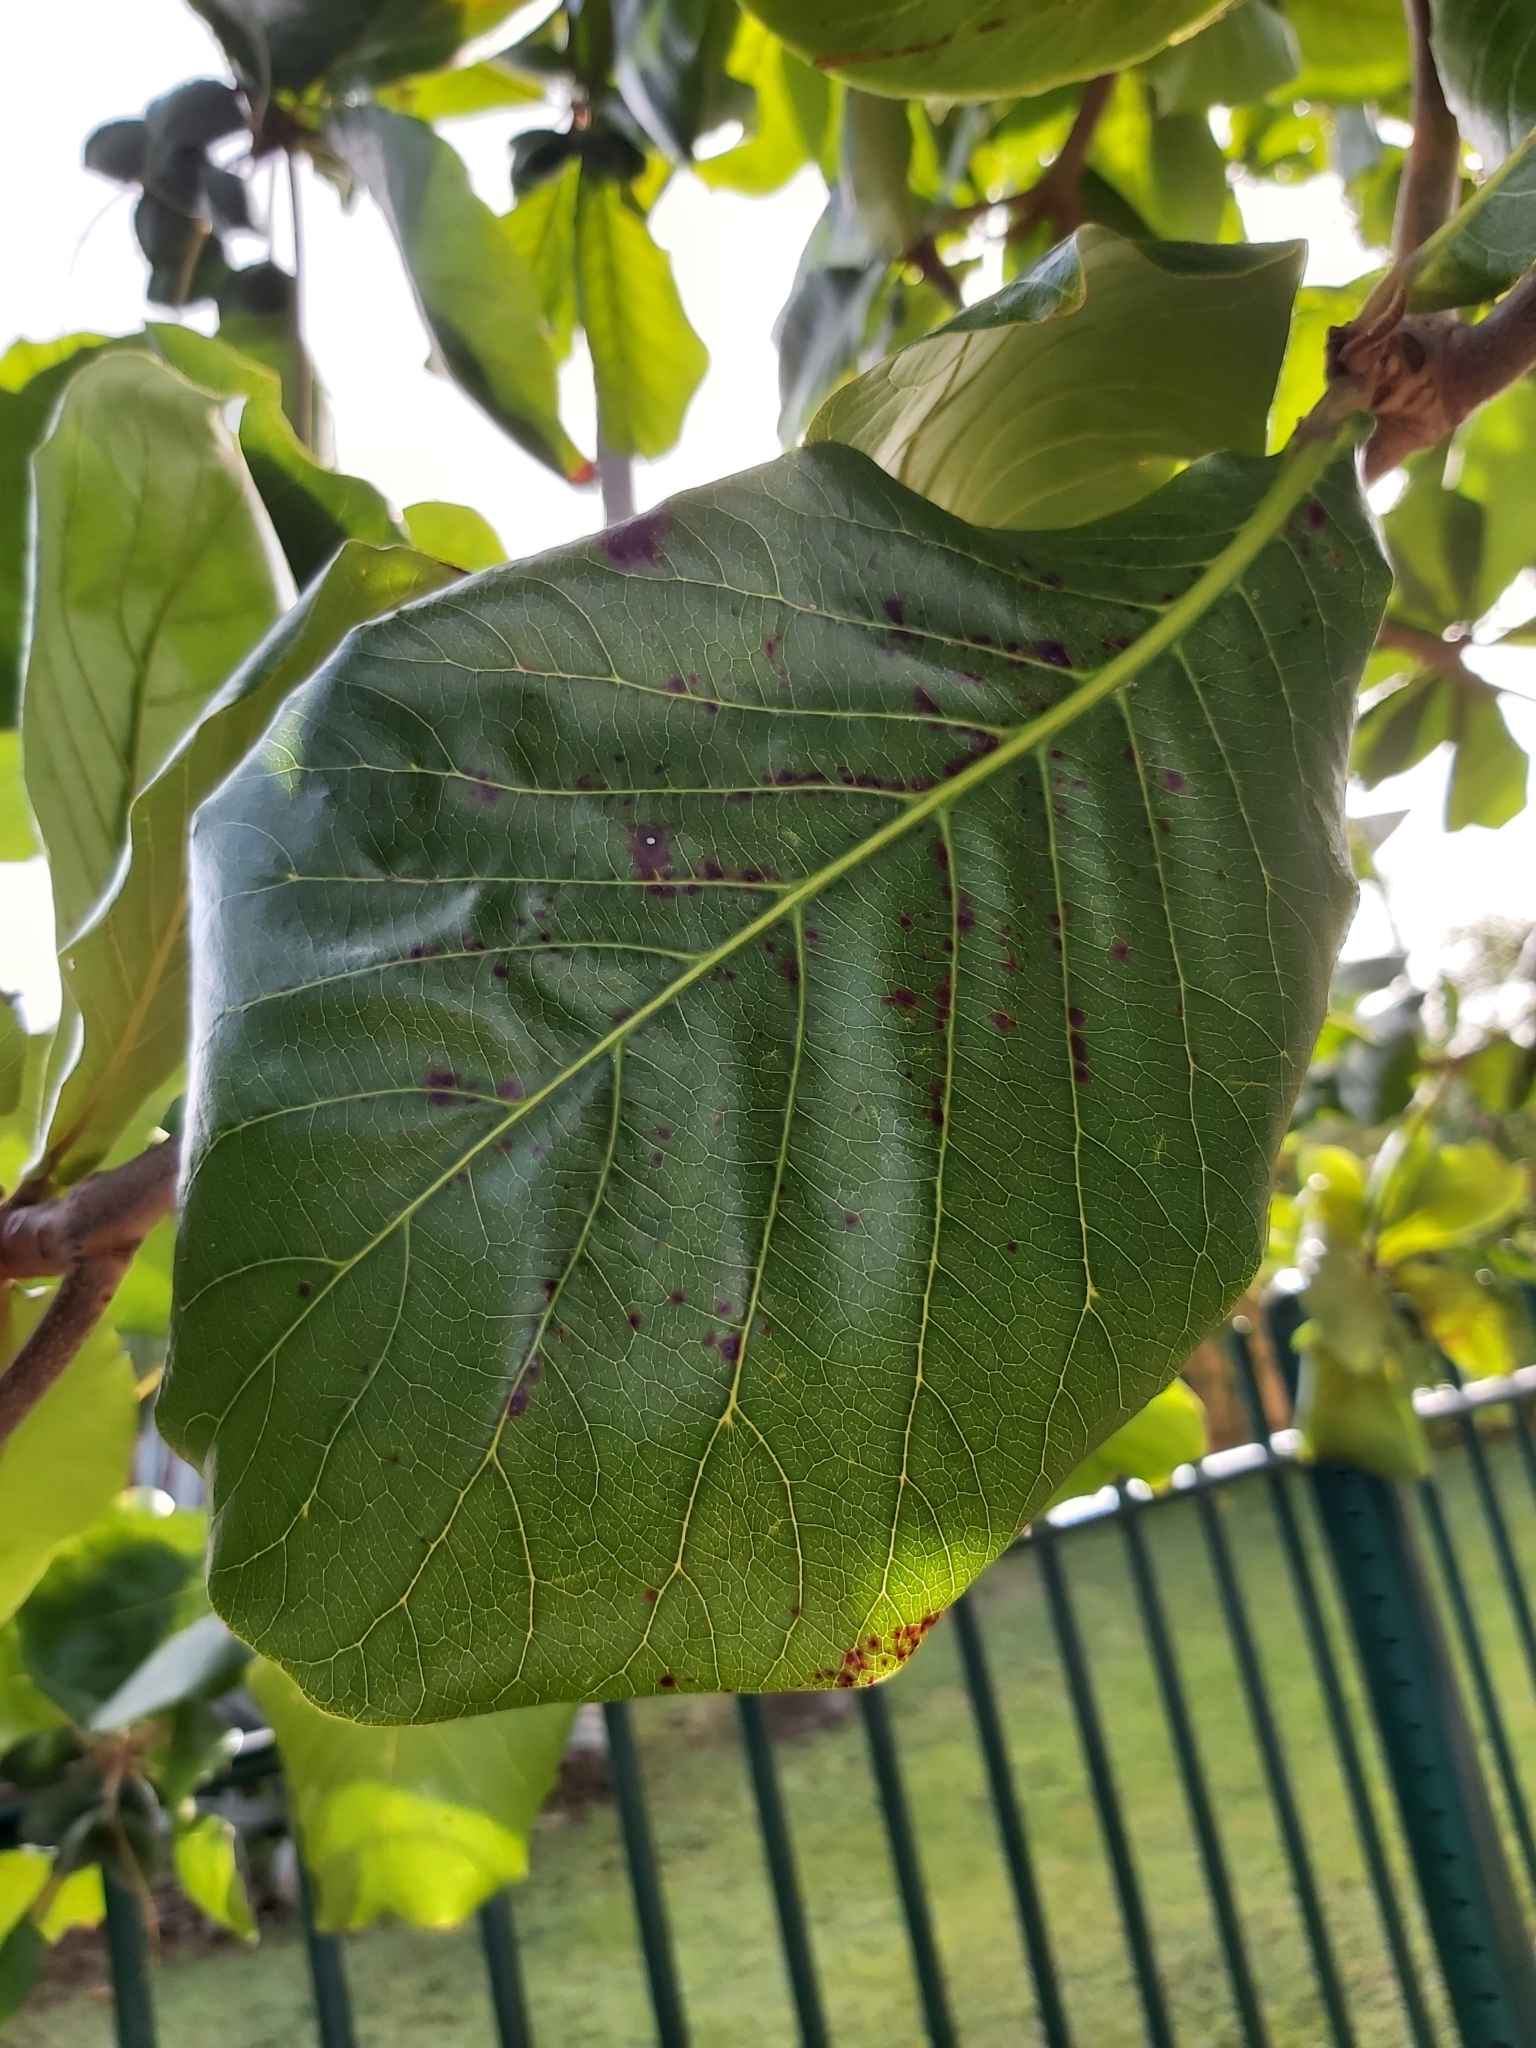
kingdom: Plantae
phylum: Tracheophyta
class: Magnoliopsida
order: Myrtales
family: Combretaceae
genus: Terminalia
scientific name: Terminalia catappa
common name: Tropical almond
